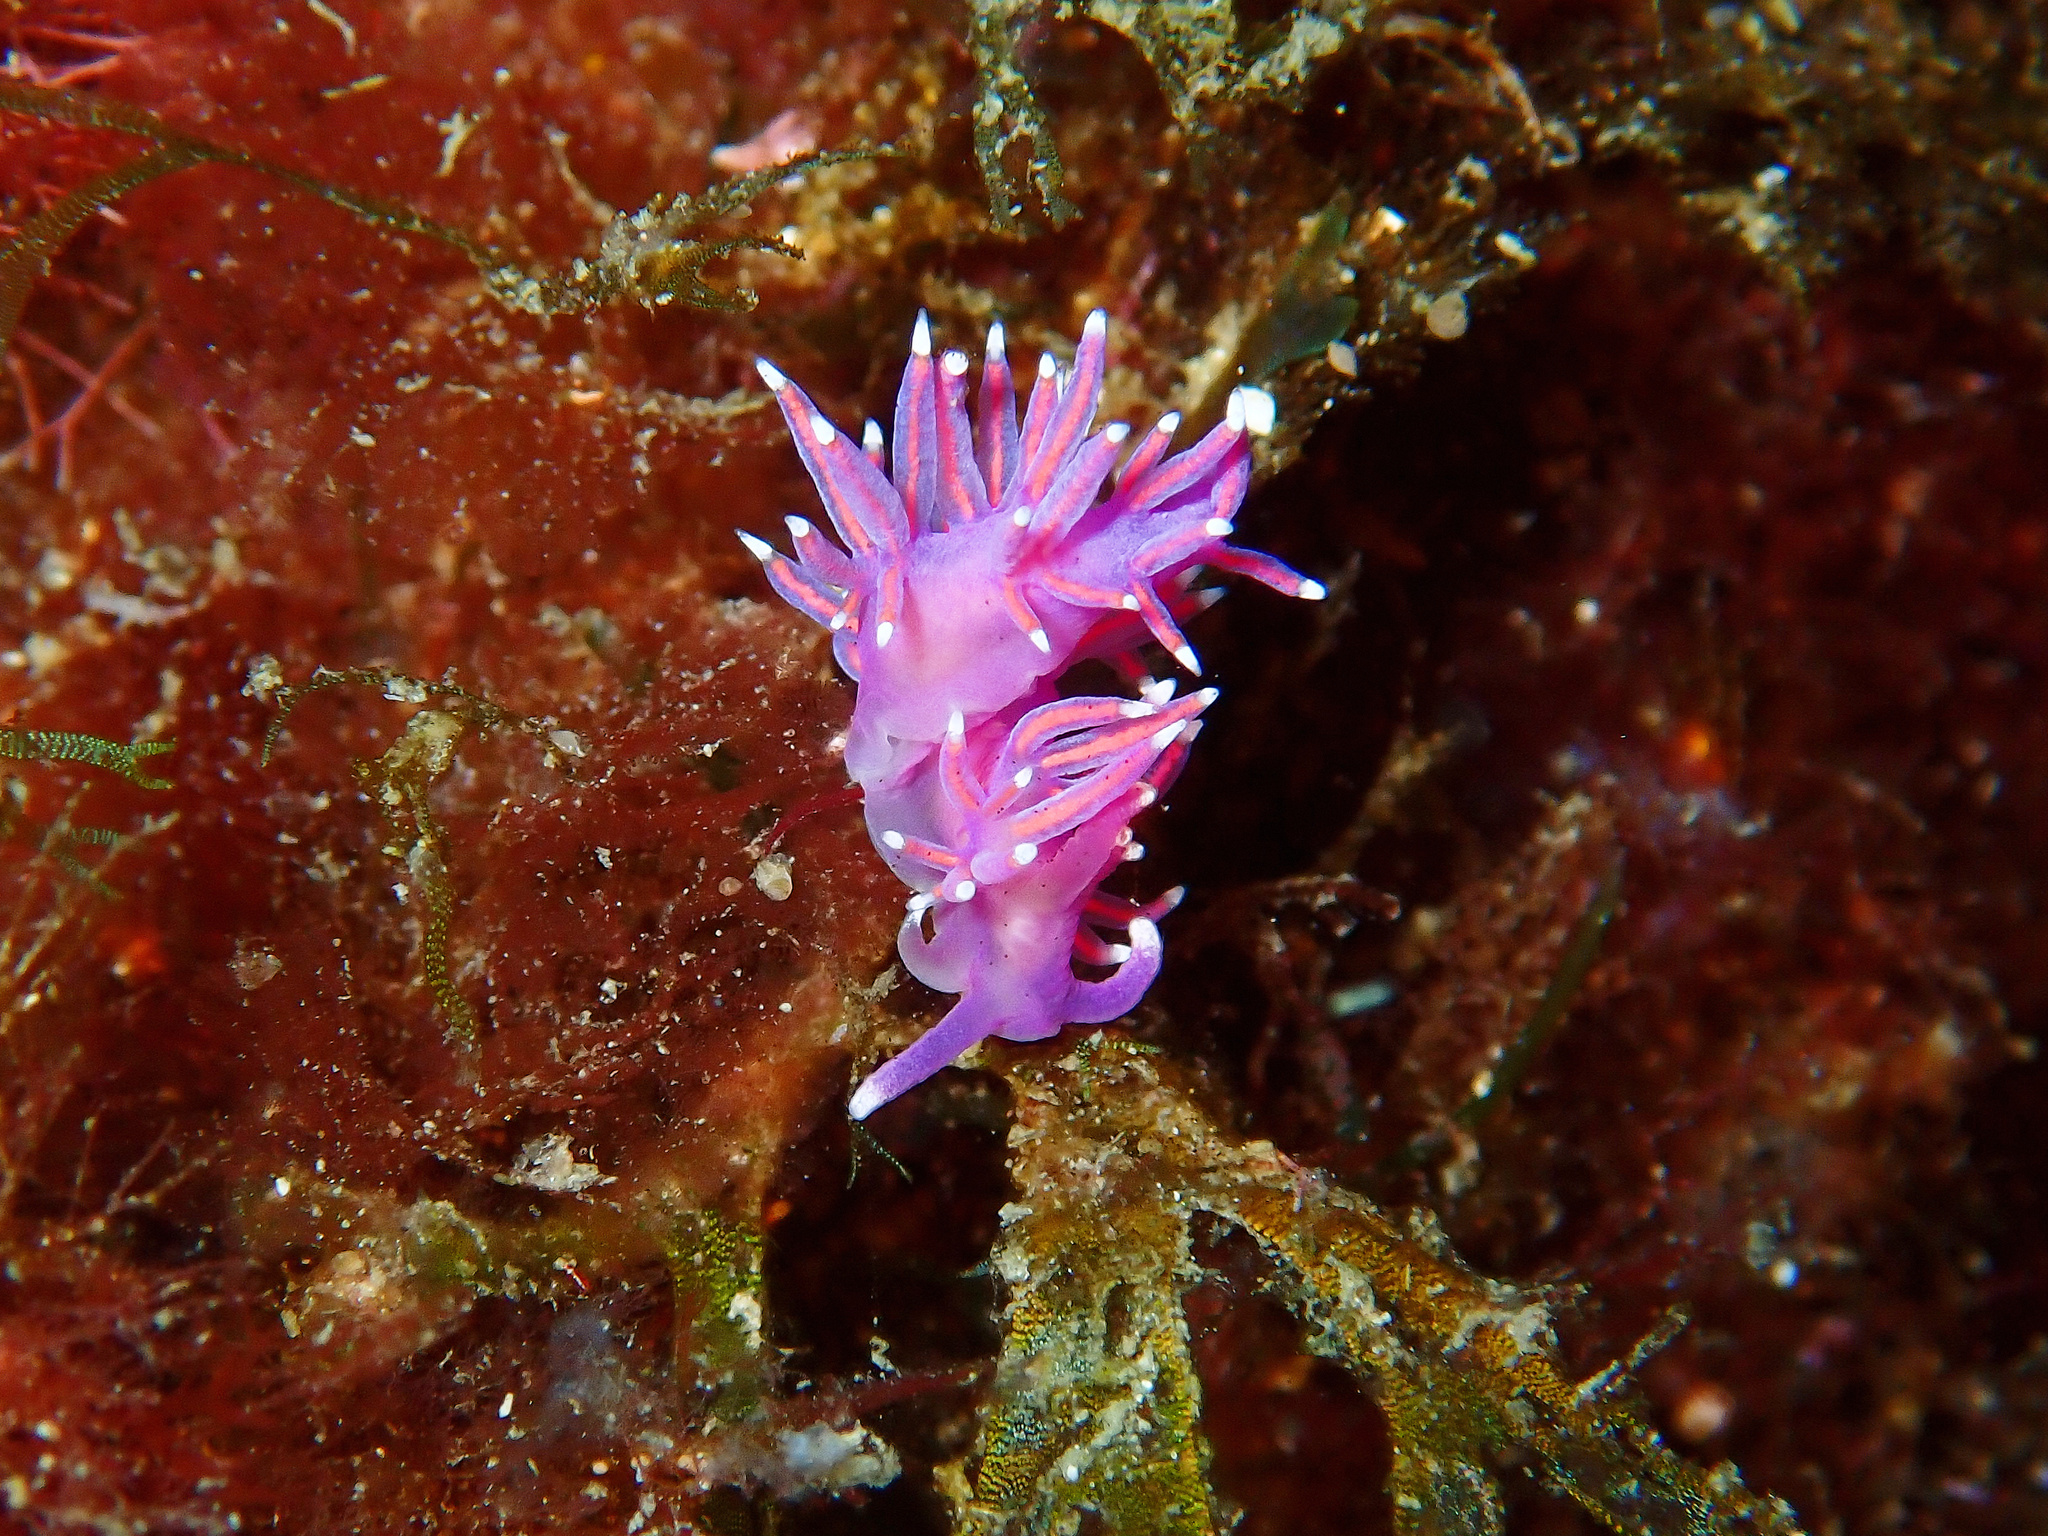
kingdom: Animalia
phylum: Mollusca
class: Gastropoda
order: Nudibranchia
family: Flabellinidae
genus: Edmundsella
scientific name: Edmundsella pedata
